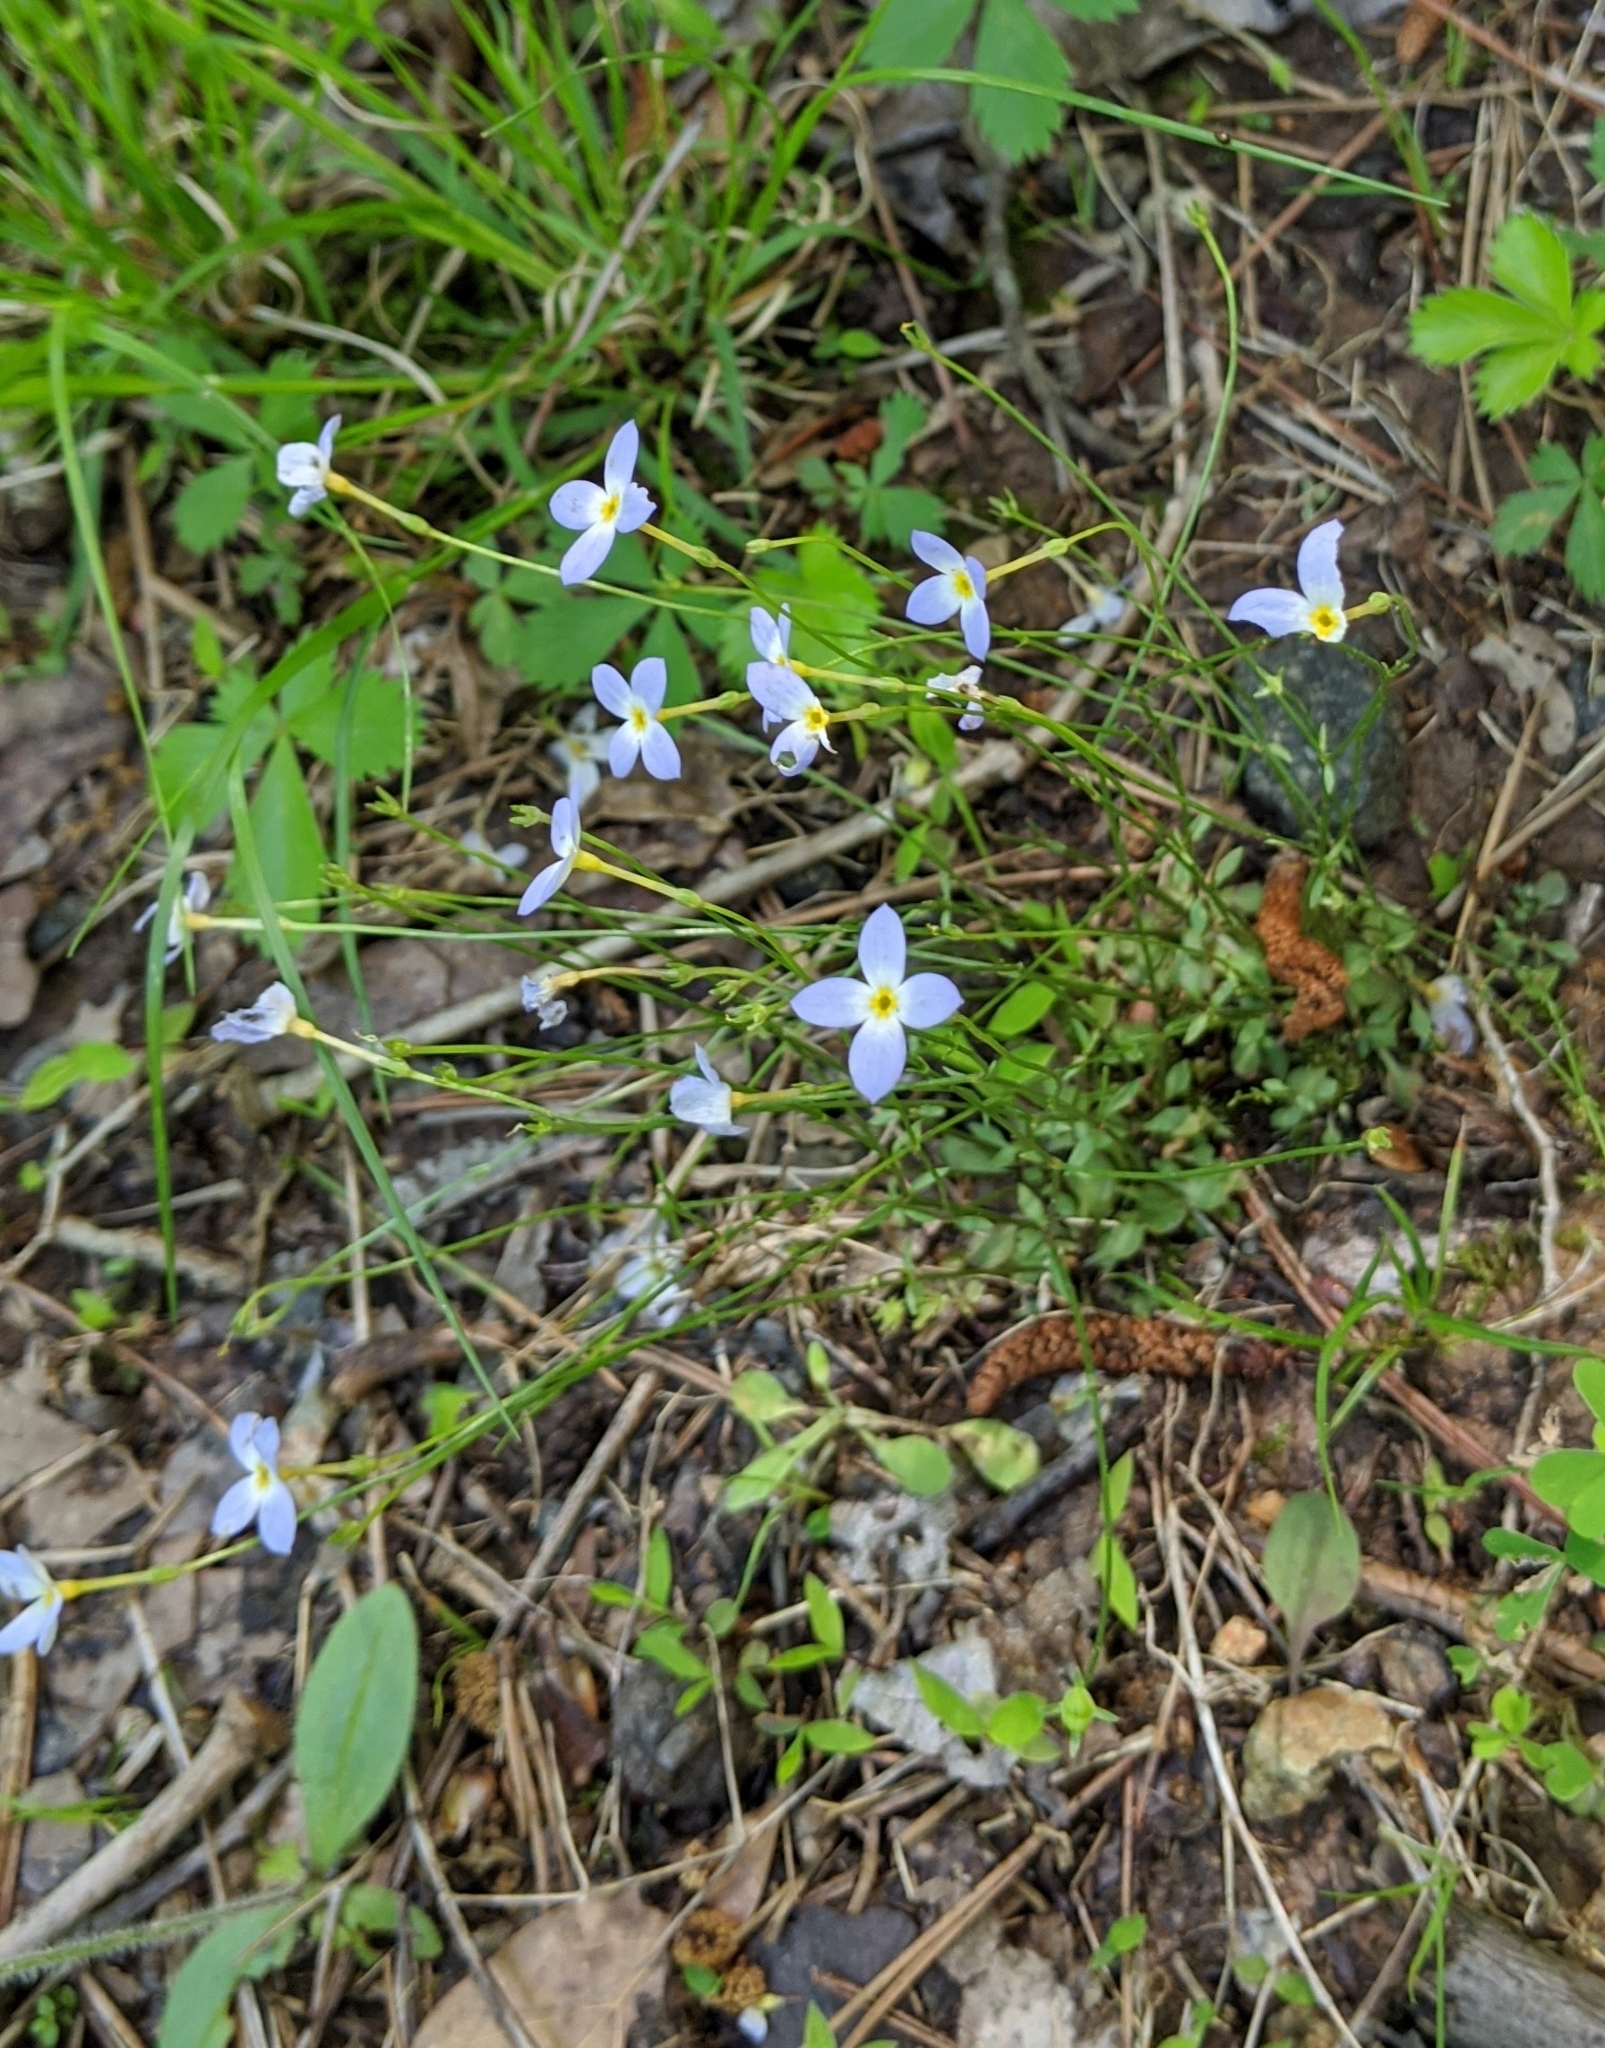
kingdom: Plantae
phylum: Tracheophyta
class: Magnoliopsida
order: Gentianales
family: Rubiaceae
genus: Houstonia
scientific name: Houstonia caerulea
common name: Bluets
